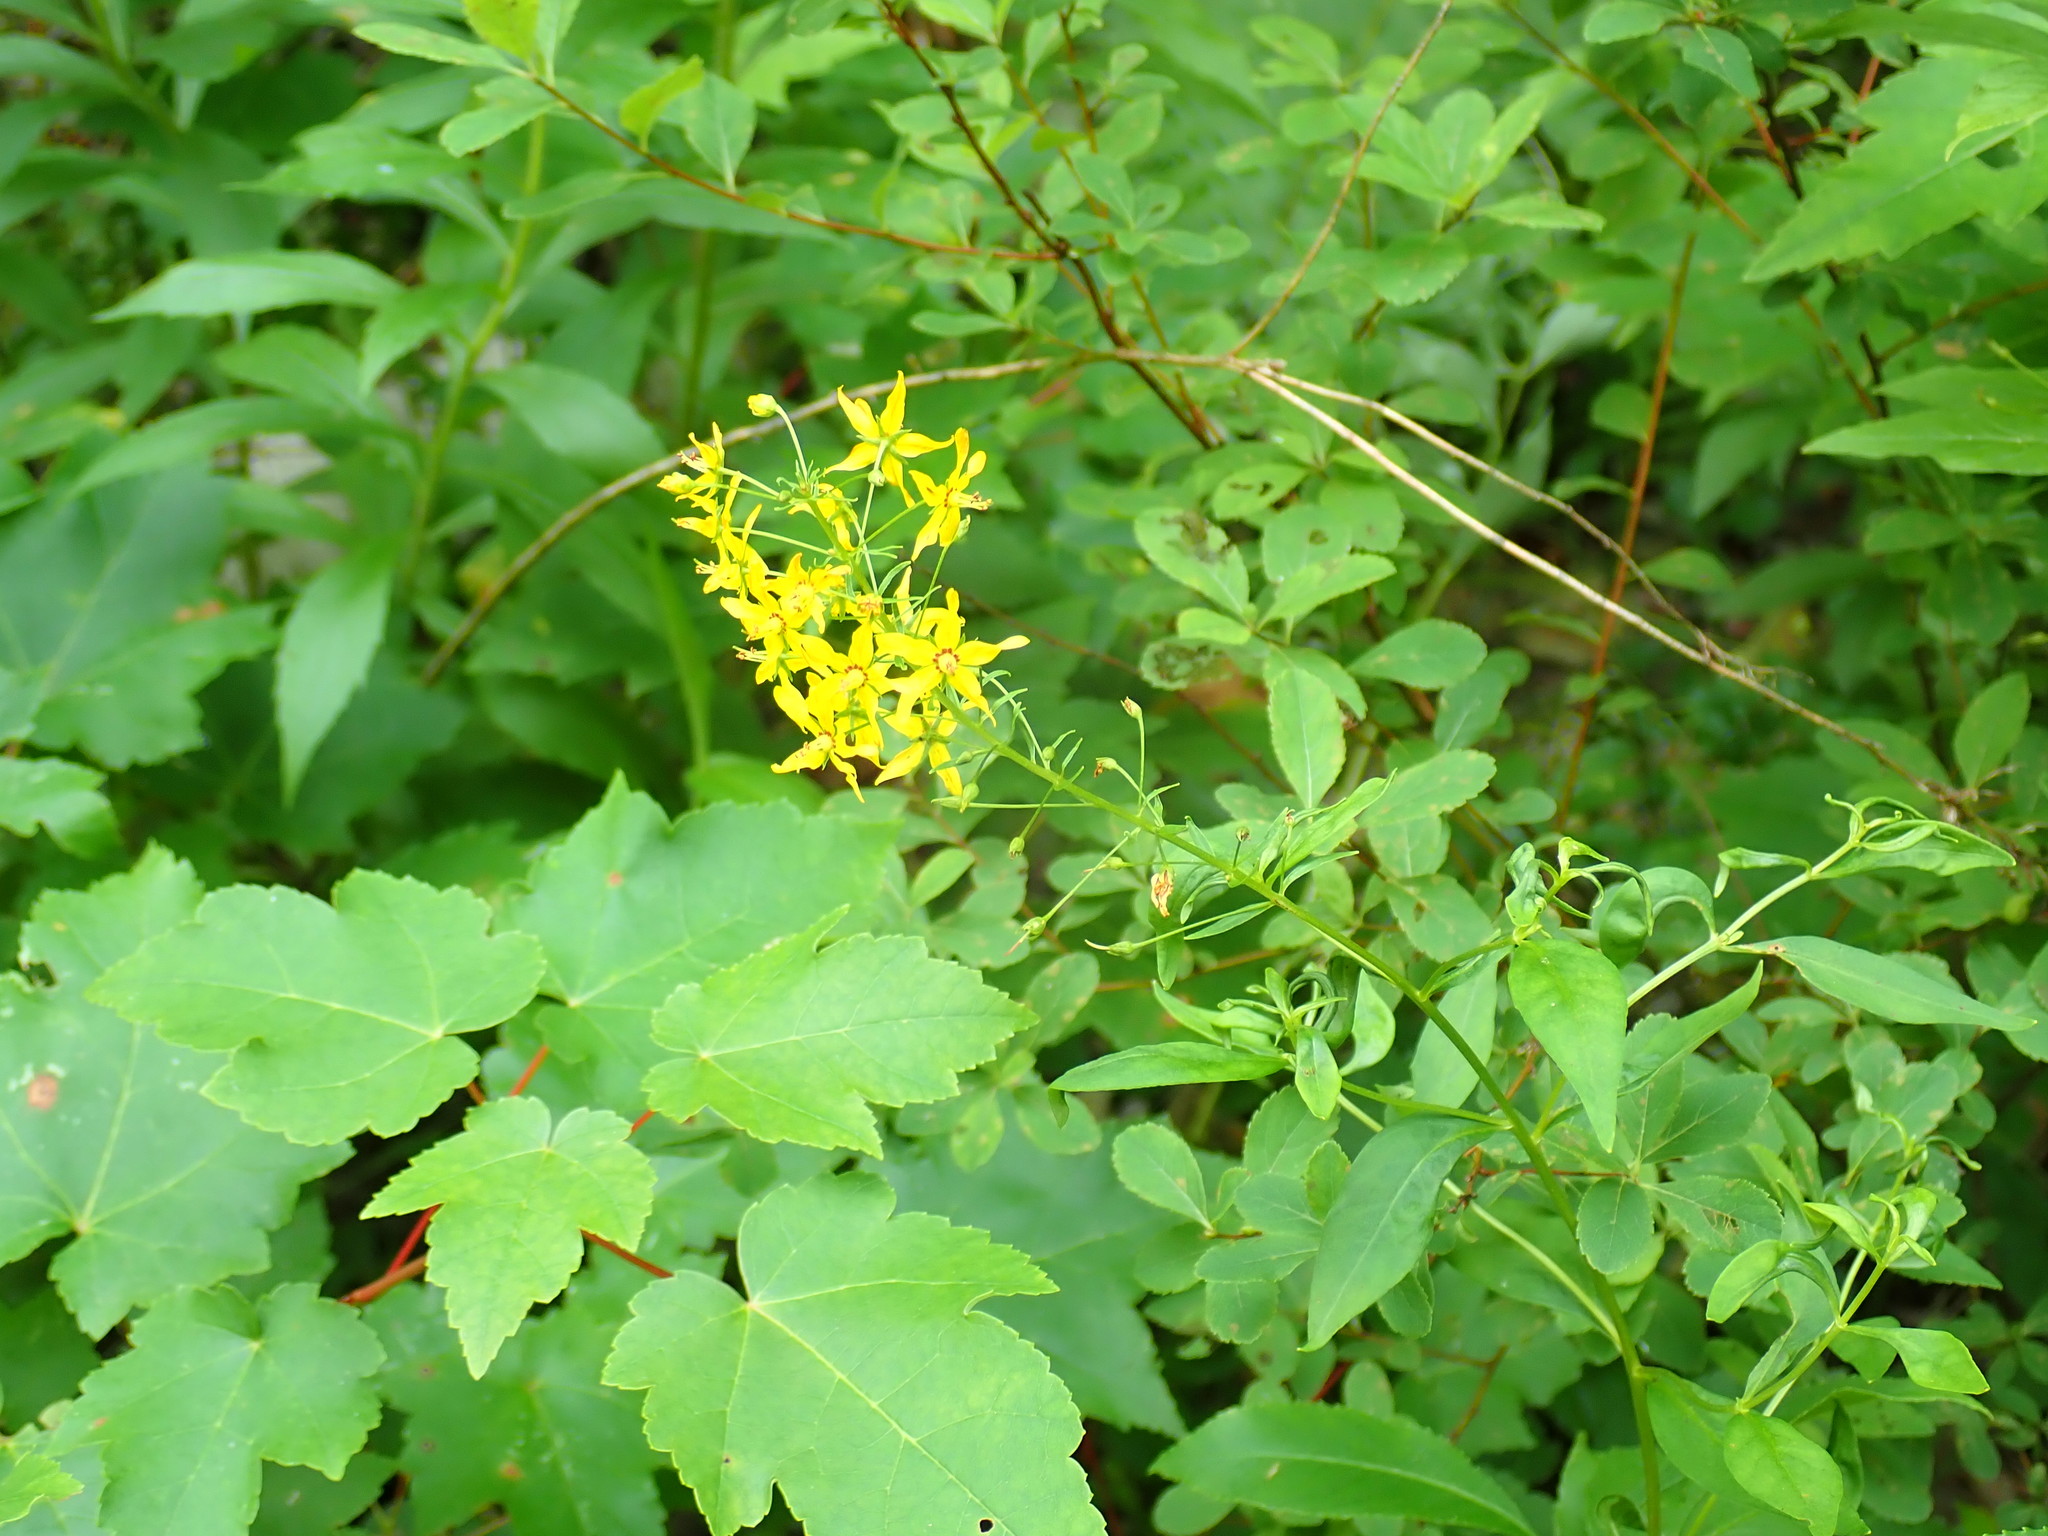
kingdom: Plantae
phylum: Tracheophyta
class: Magnoliopsida
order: Ericales
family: Primulaceae
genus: Lysimachia
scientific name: Lysimachia terrestris
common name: Lake loosestrife
